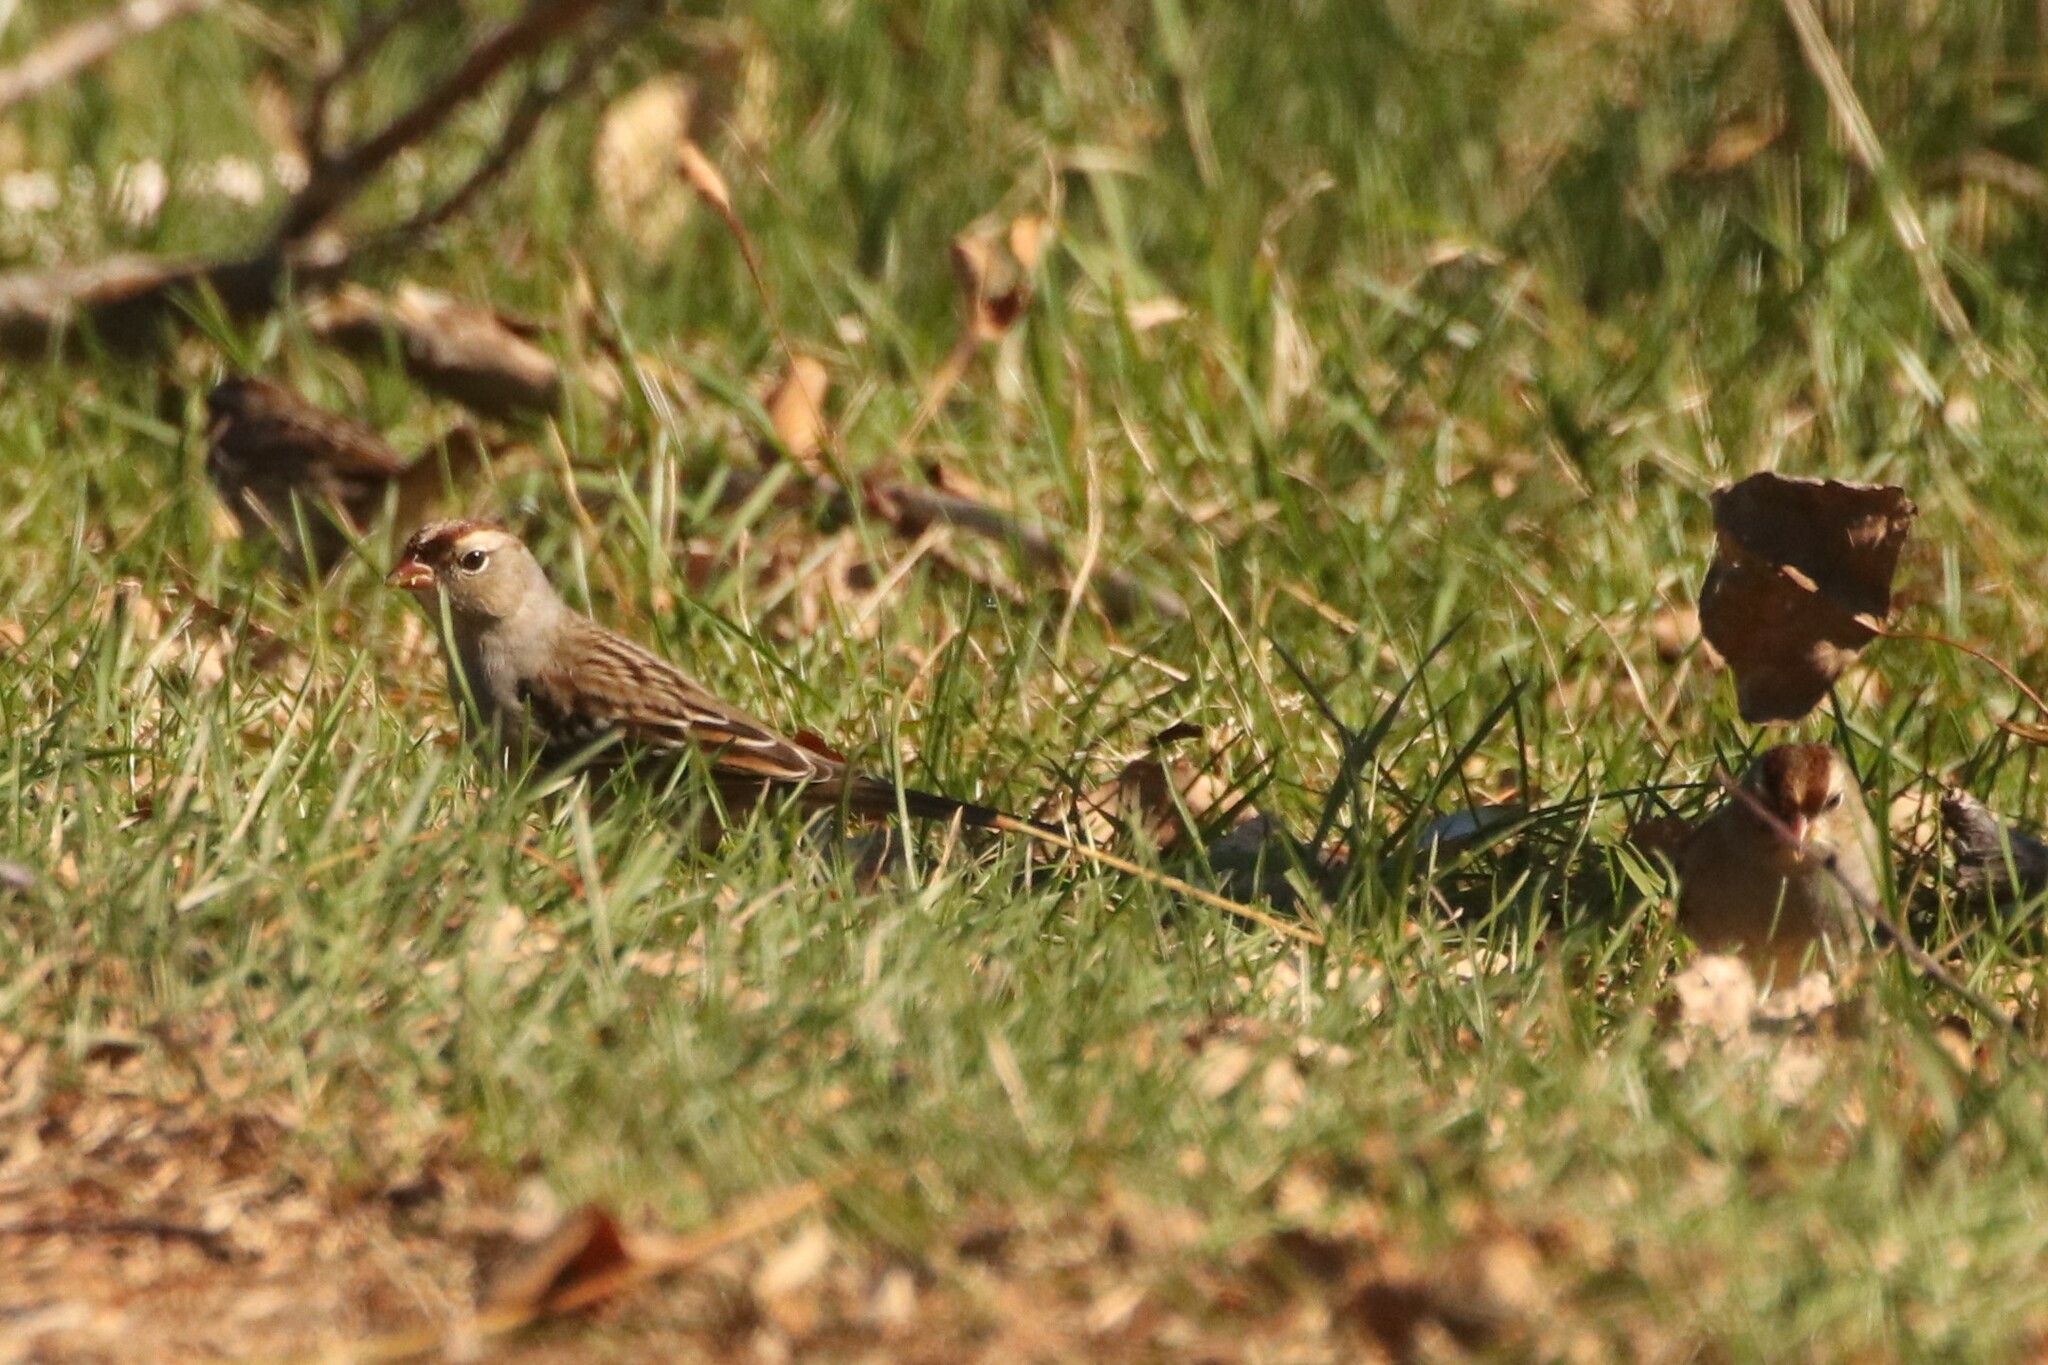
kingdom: Animalia
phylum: Chordata
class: Aves
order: Passeriformes
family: Passerellidae
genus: Zonotrichia
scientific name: Zonotrichia leucophrys
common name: White-crowned sparrow
